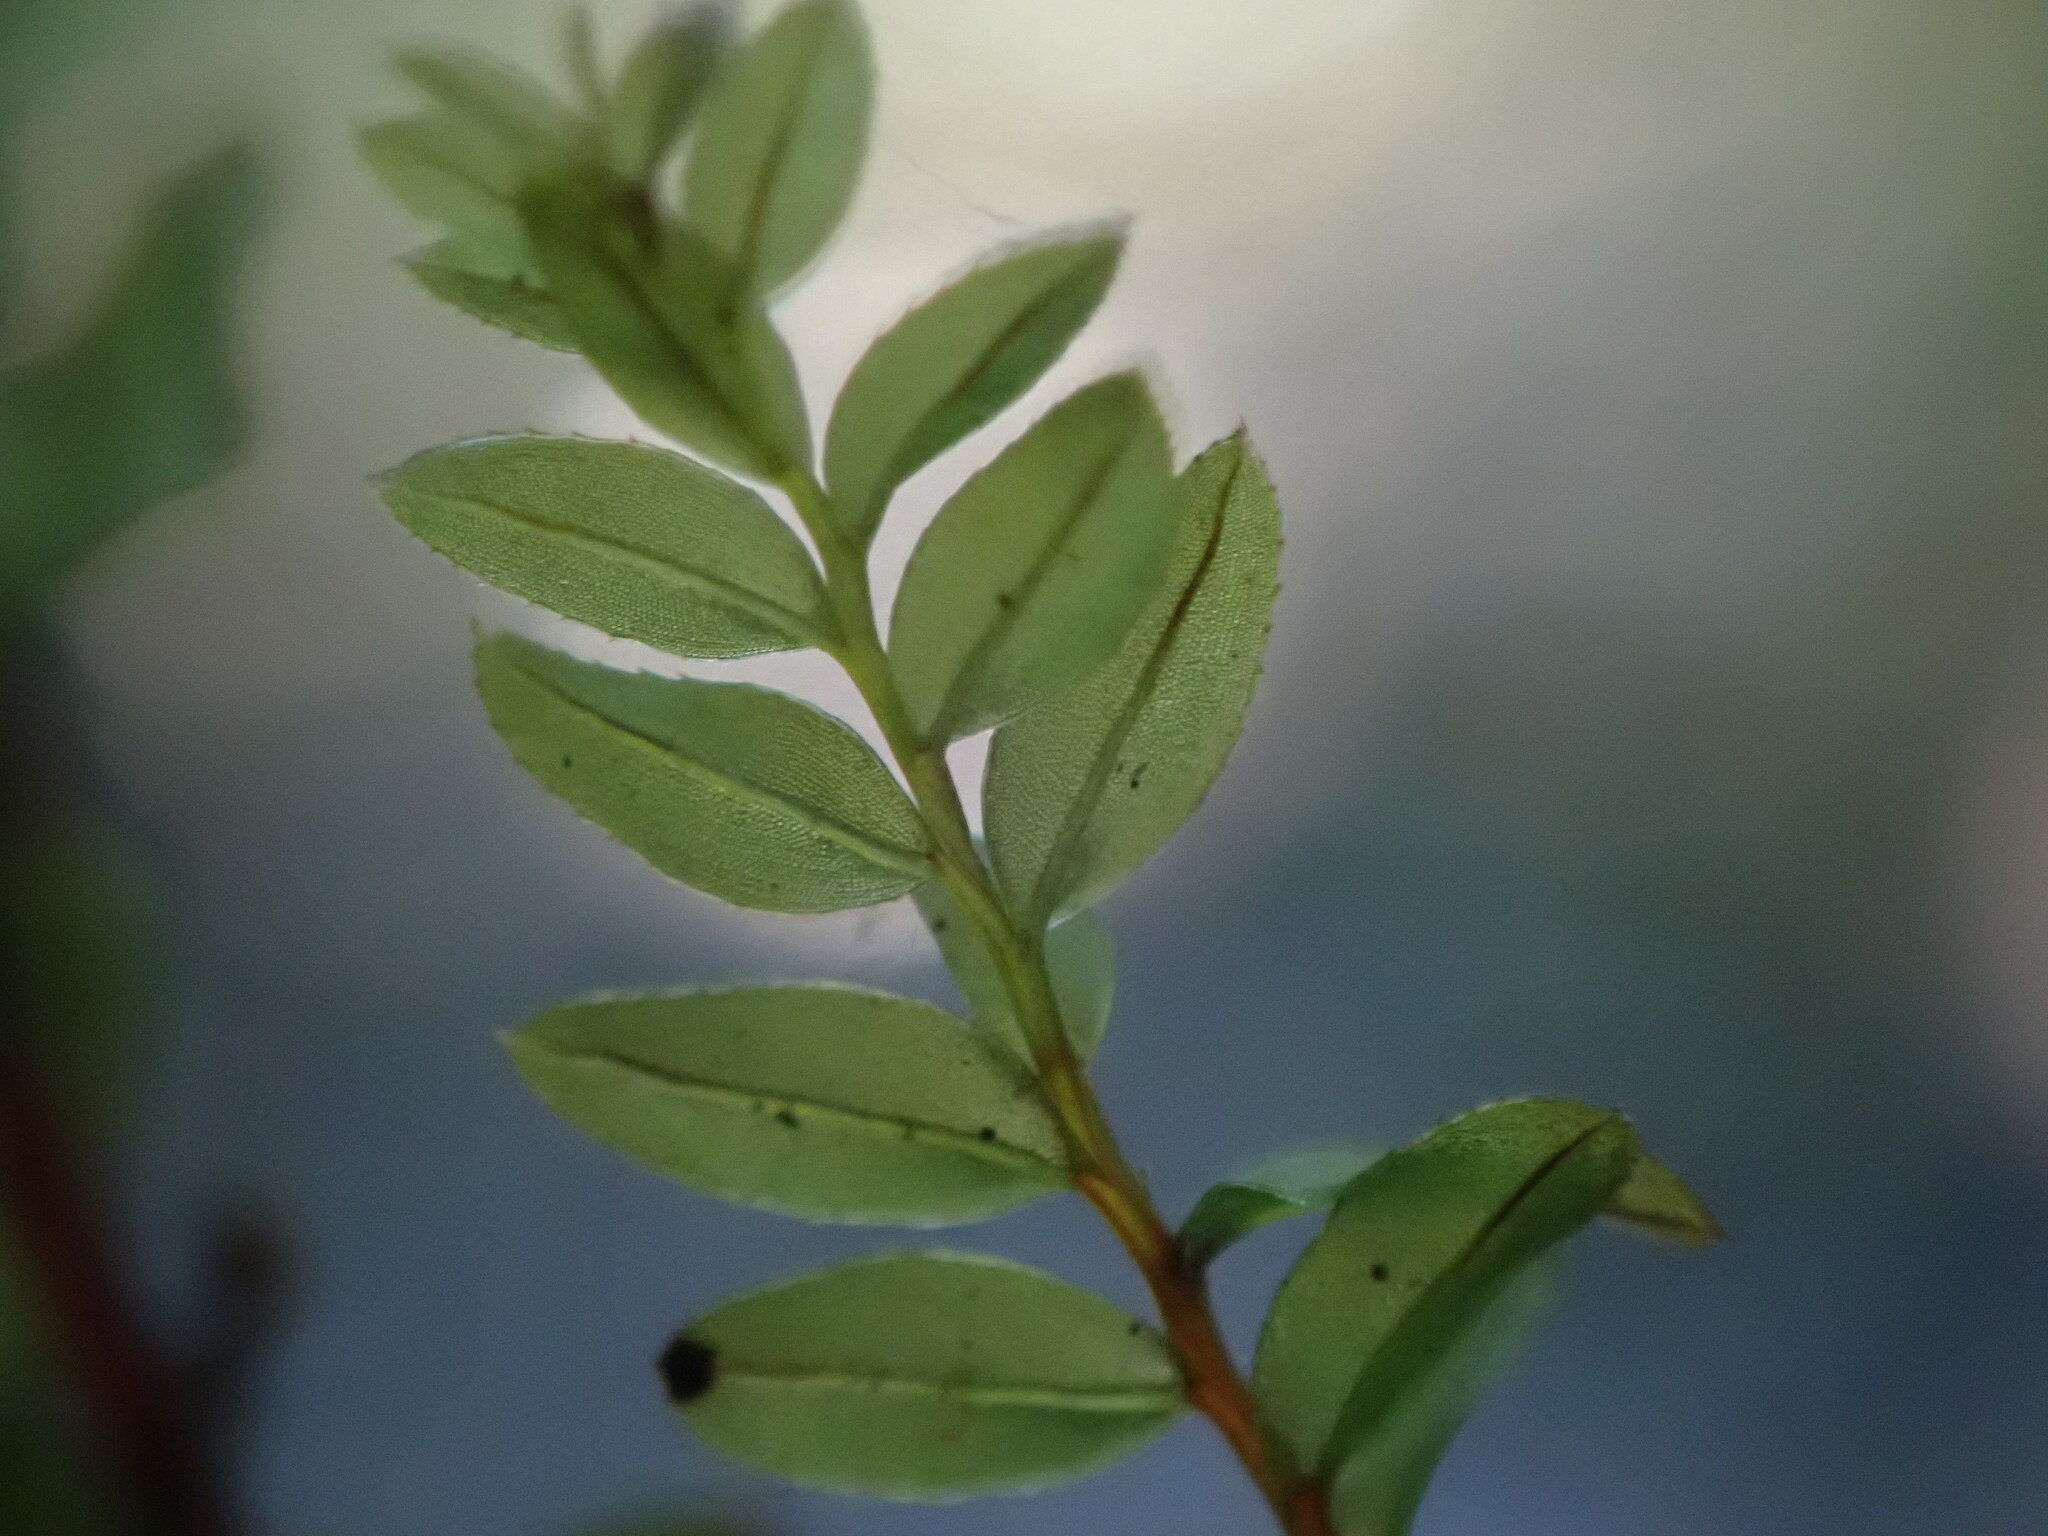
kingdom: Plantae
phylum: Bryophyta
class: Bryopsida
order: Bryales
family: Mniaceae
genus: Mnium
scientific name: Mnium spinulosum
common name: Red-mouthed leafy moss
